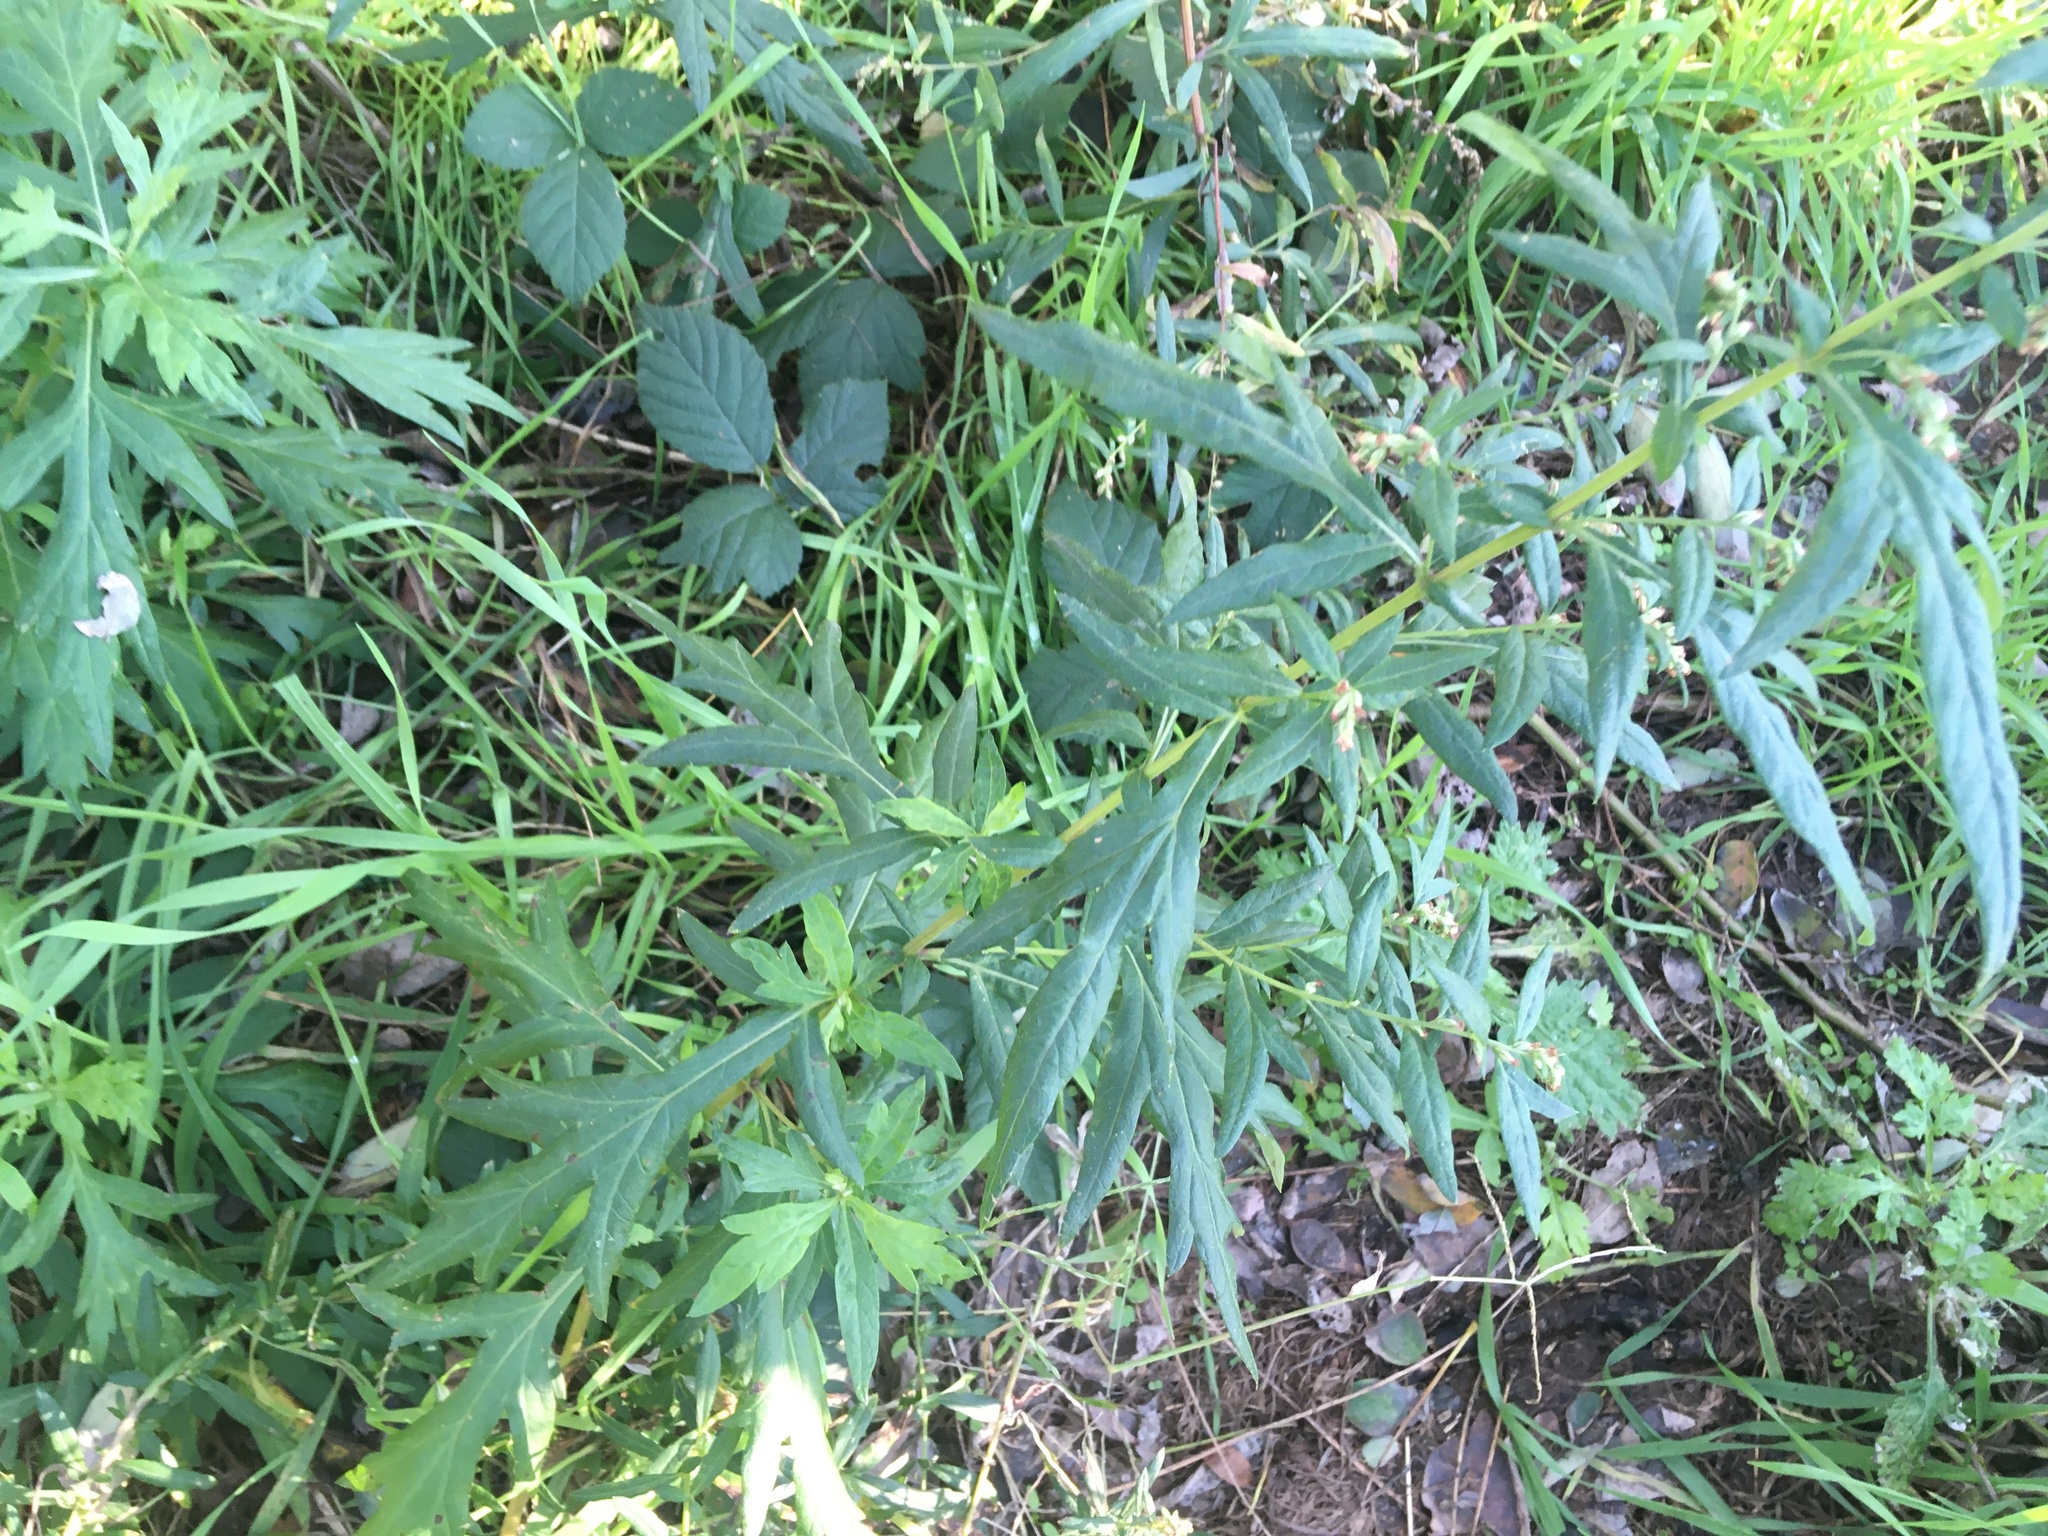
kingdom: Plantae
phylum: Tracheophyta
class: Magnoliopsida
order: Asterales
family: Asteraceae
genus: Artemisia
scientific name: Artemisia vulgaris
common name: Mugwort
